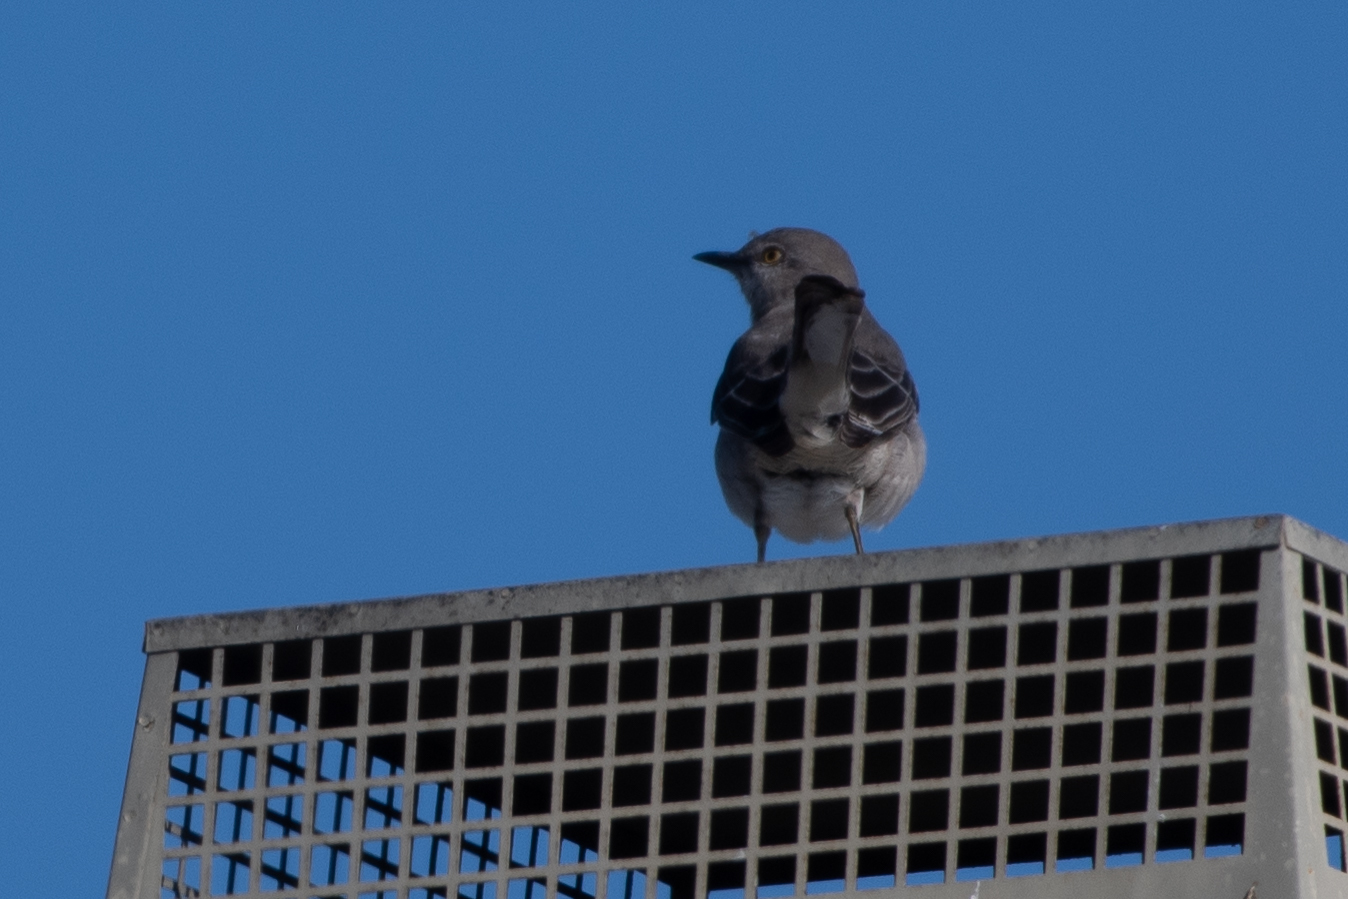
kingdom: Animalia
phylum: Chordata
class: Aves
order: Passeriformes
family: Mimidae
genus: Mimus
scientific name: Mimus polyglottos
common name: Northern mockingbird
